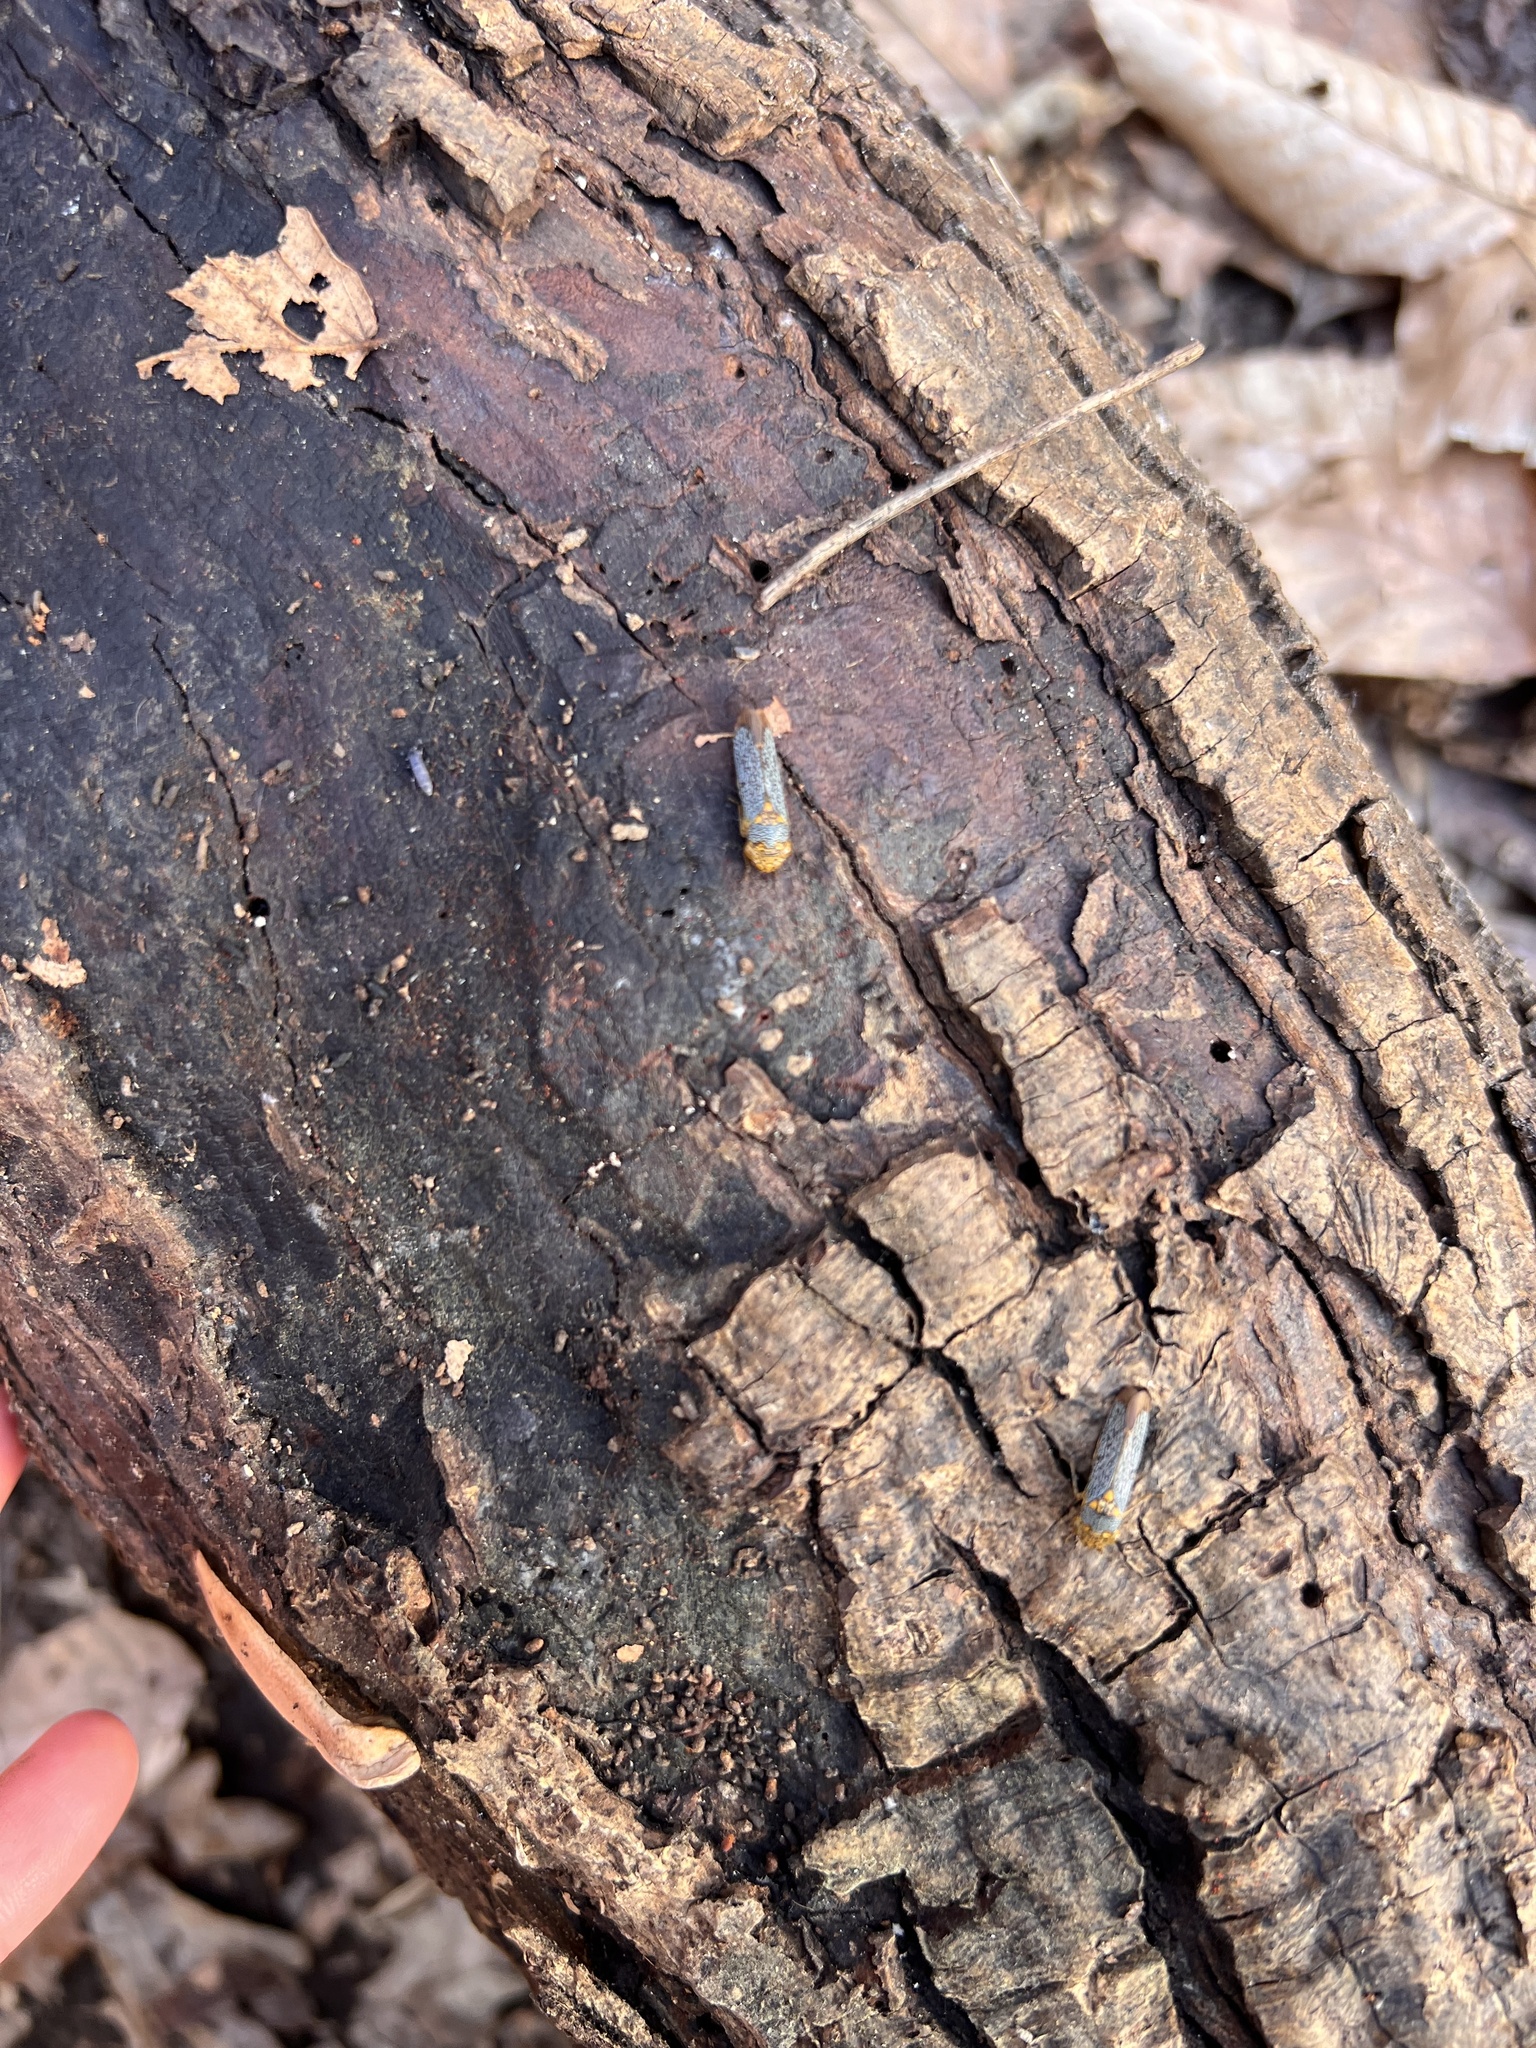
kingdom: Animalia
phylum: Arthropoda
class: Insecta
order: Hemiptera
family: Cicadellidae
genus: Oncometopia
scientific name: Oncometopia orbona
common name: Broad-headed sharpshooter
